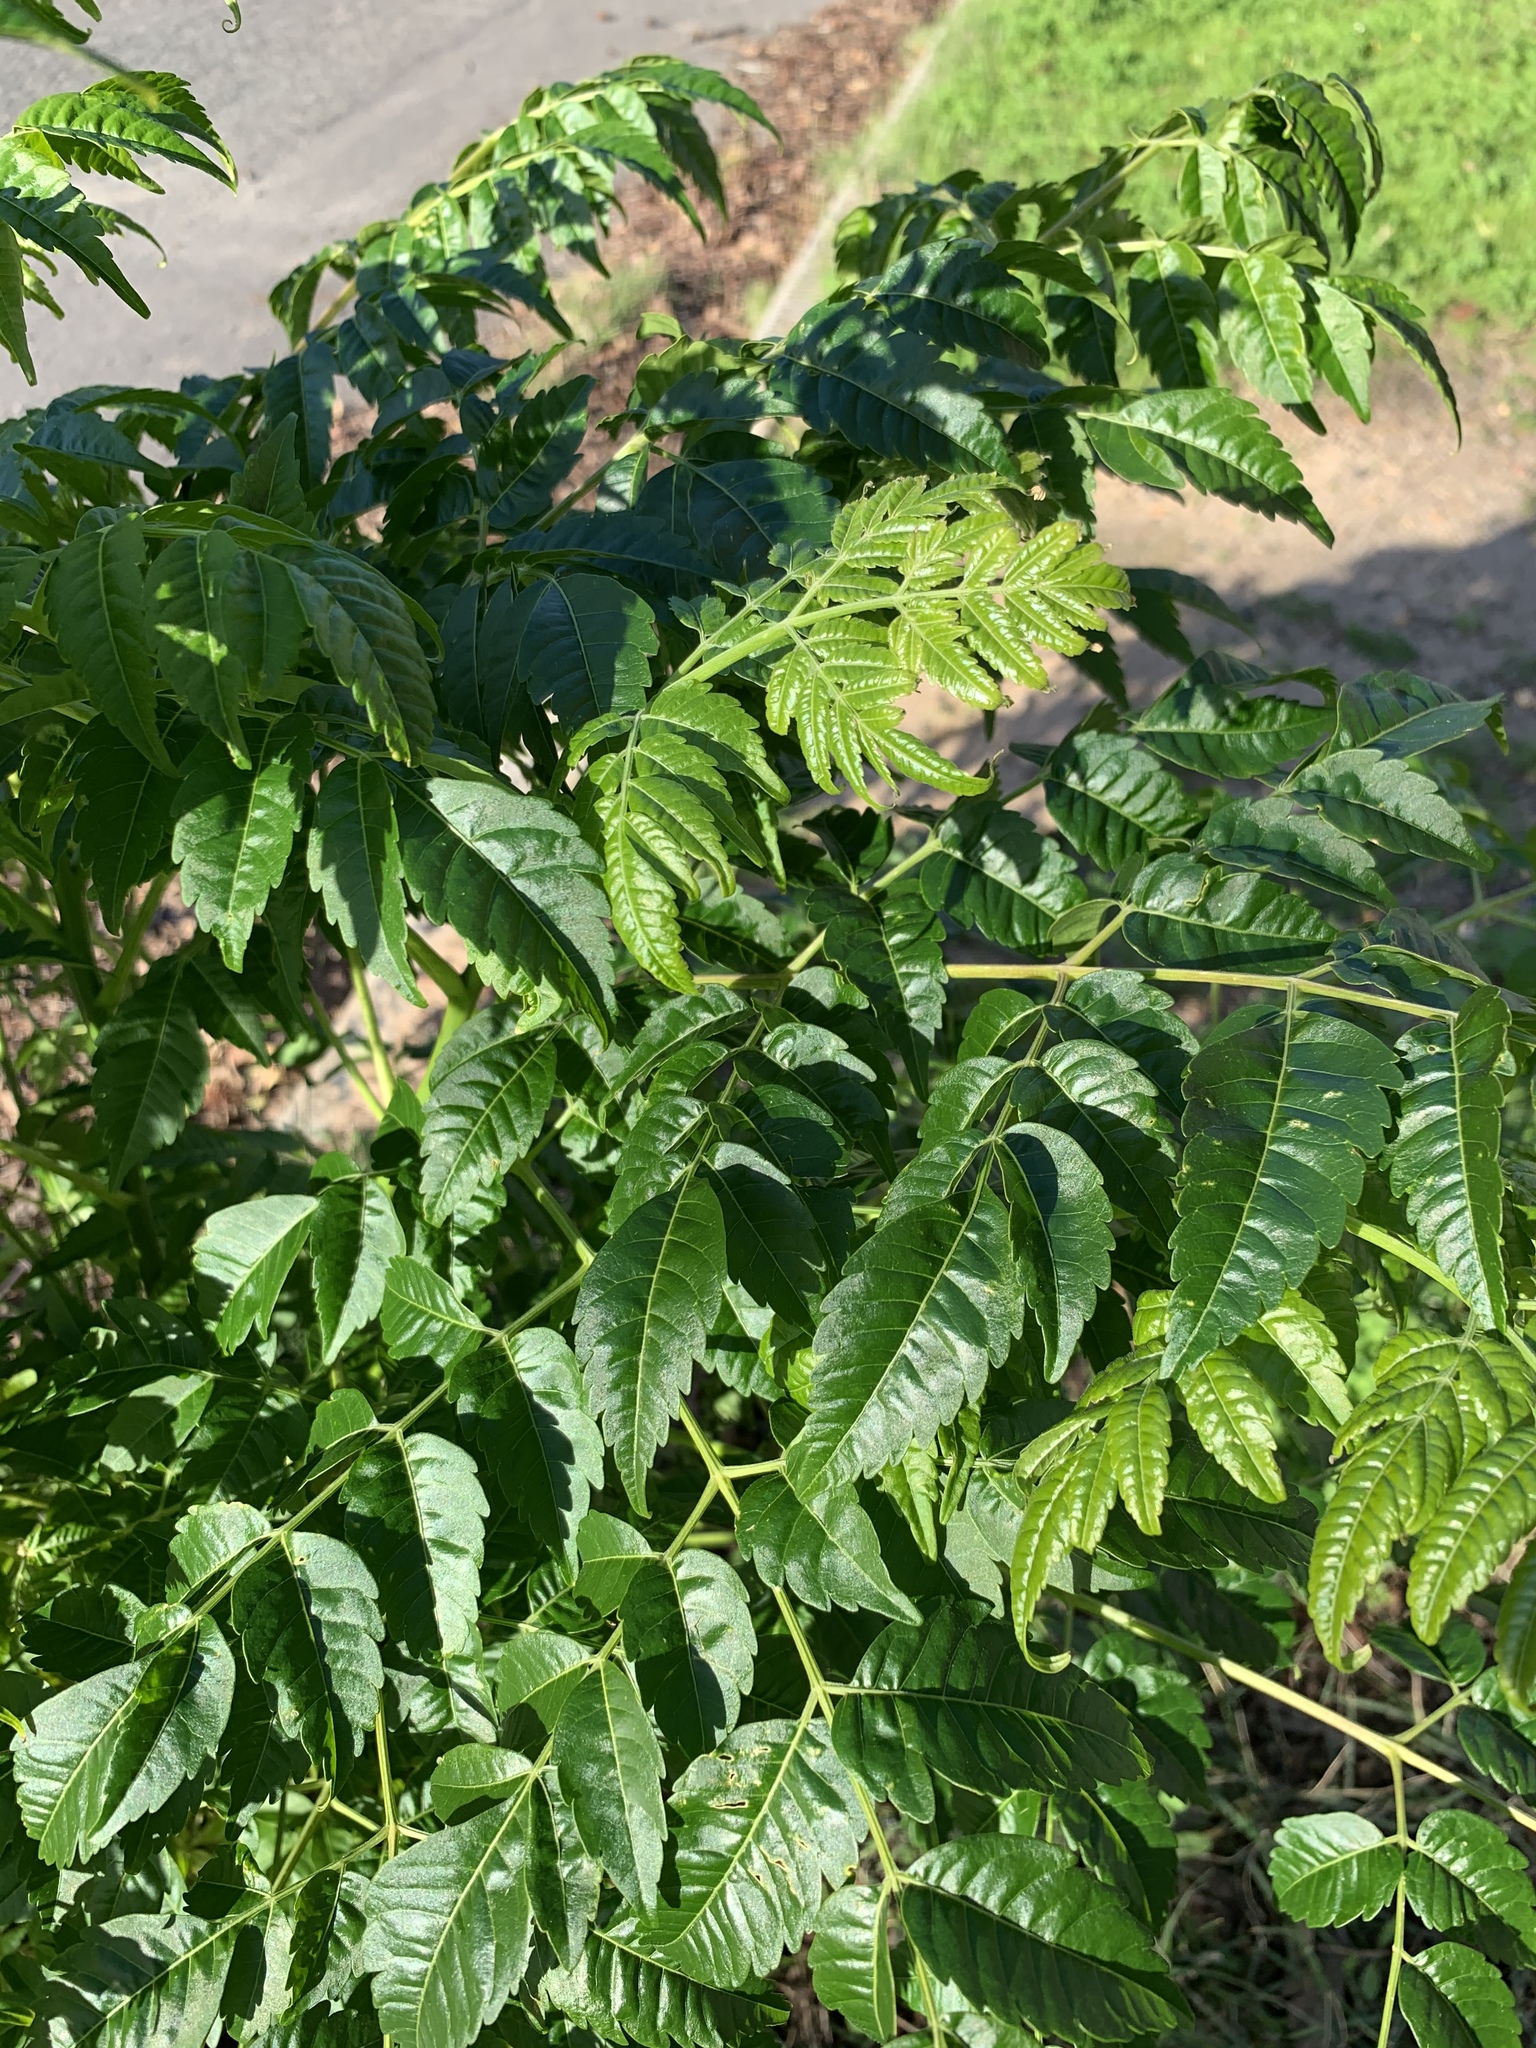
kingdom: Plantae
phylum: Tracheophyta
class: Magnoliopsida
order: Sapindales
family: Meliaceae
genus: Melia
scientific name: Melia azedarach
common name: Chinaberrytree
